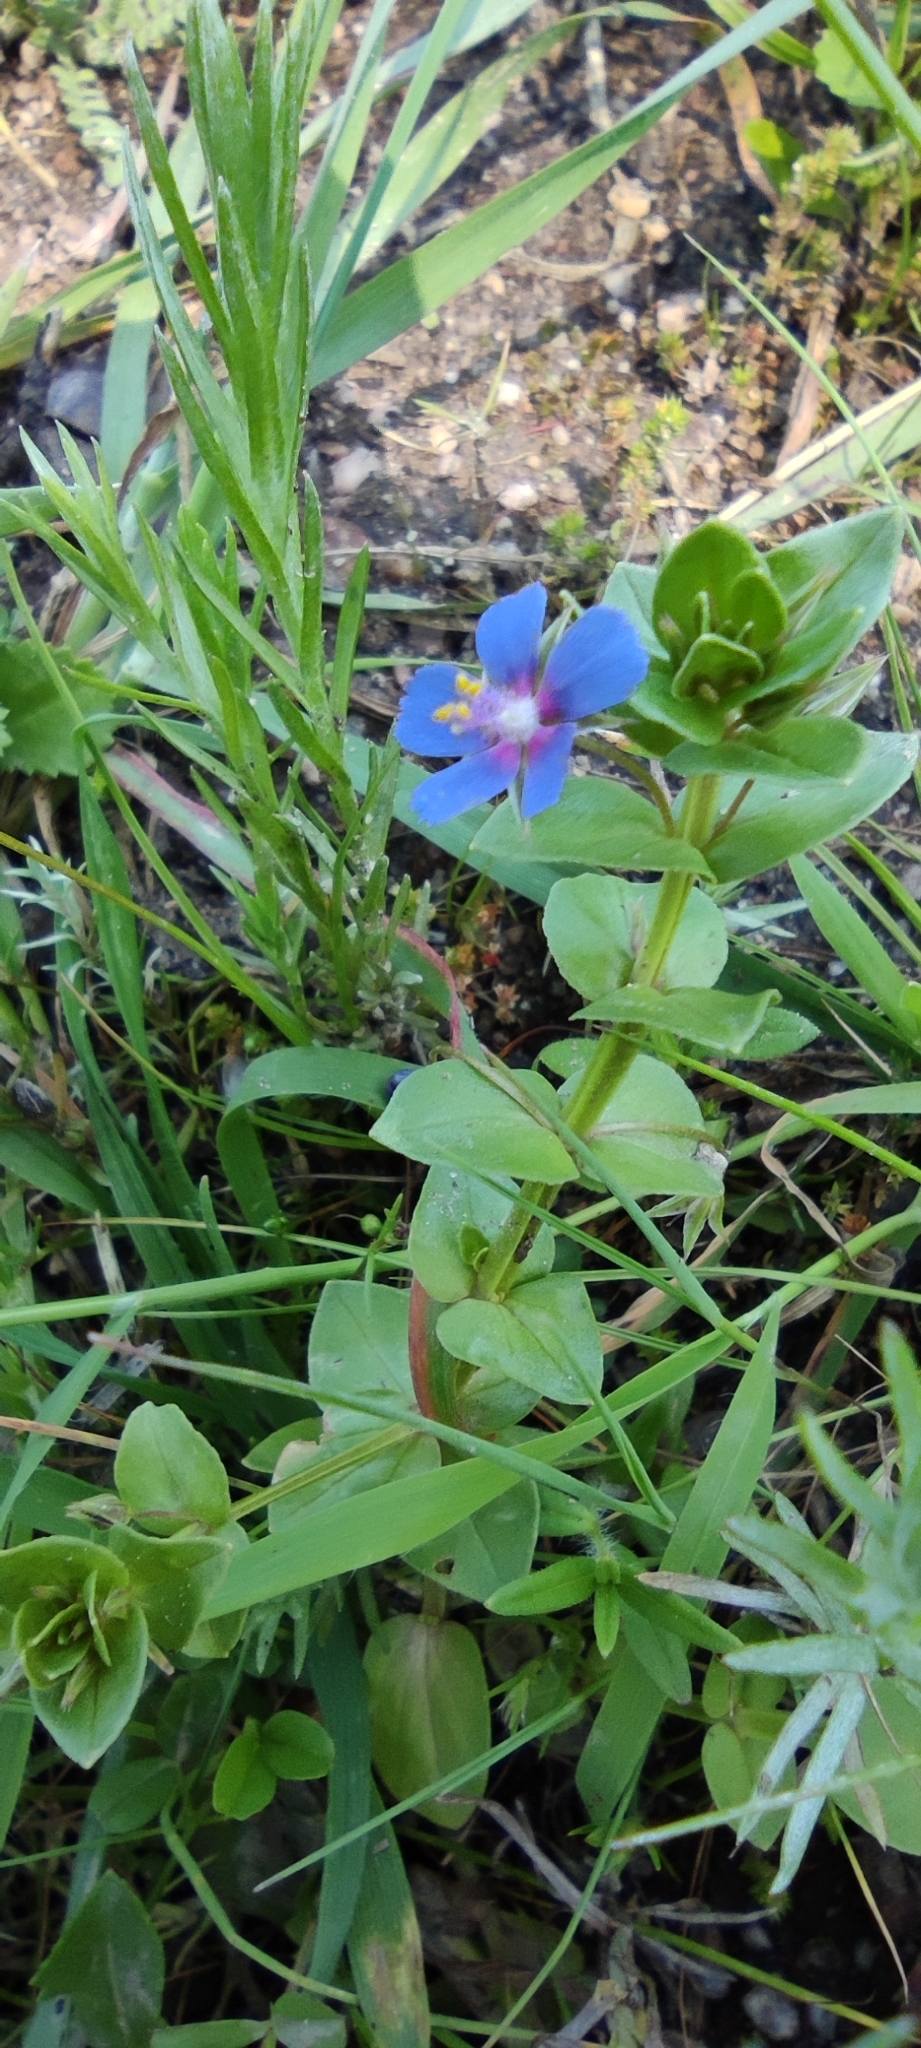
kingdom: Plantae
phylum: Tracheophyta
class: Magnoliopsida
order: Ericales
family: Primulaceae
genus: Lysimachia
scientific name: Lysimachia arvensis
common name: Scarlet pimpernel
